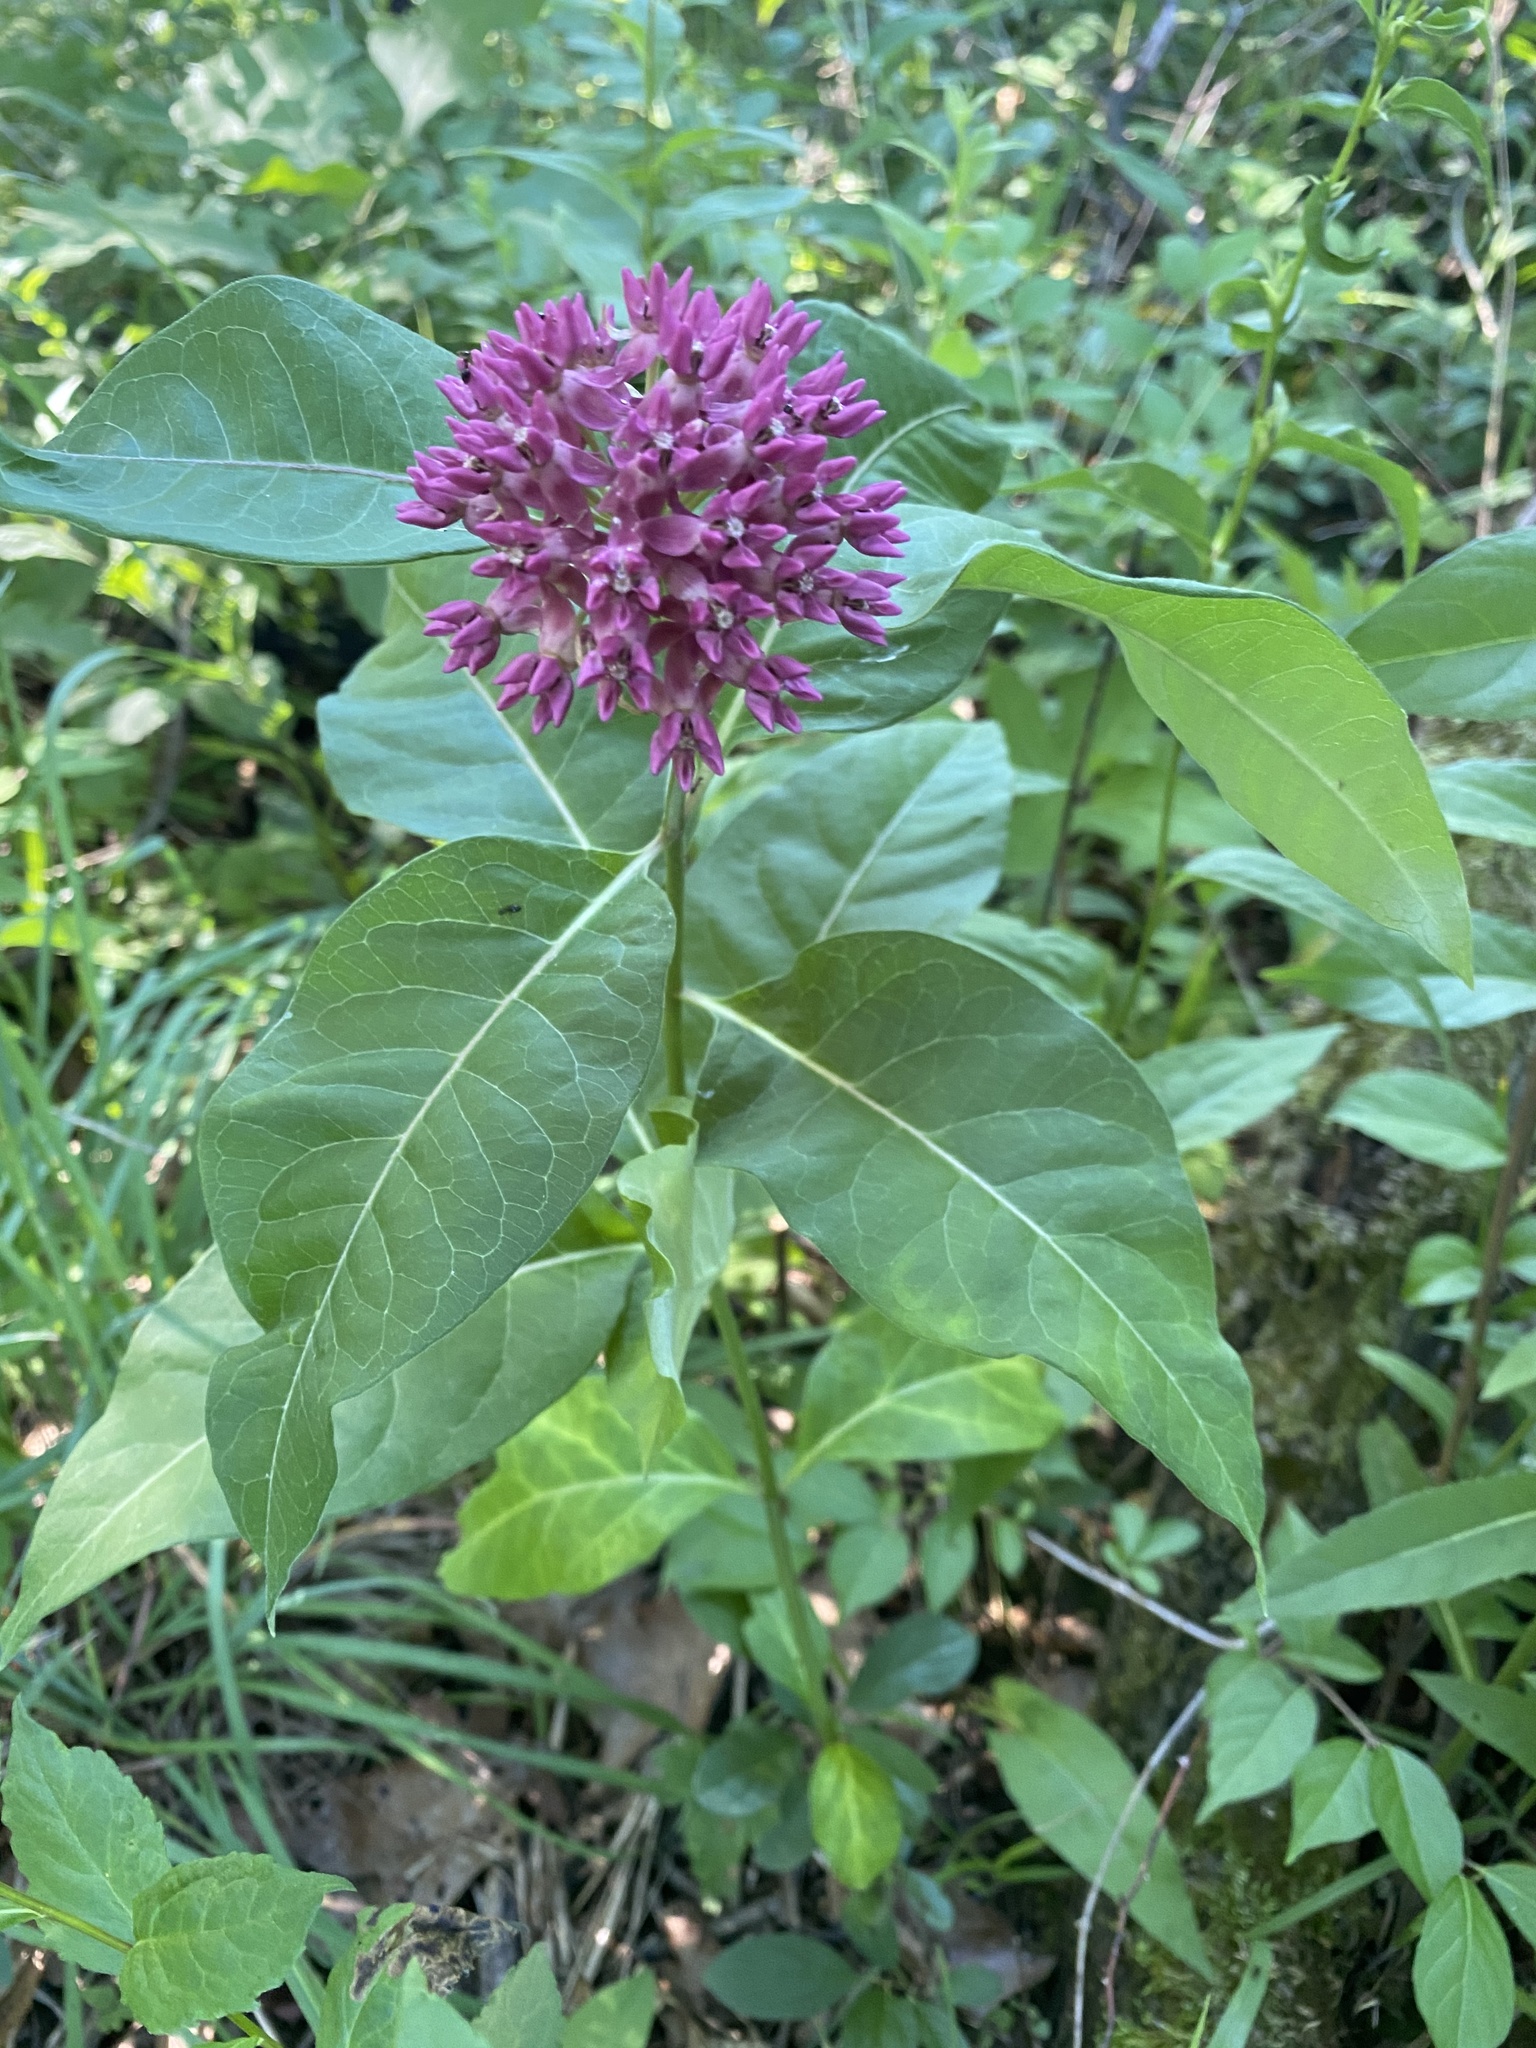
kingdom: Plantae
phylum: Tracheophyta
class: Magnoliopsida
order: Gentianales
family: Apocynaceae
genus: Asclepias
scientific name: Asclepias purpurascens
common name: Purple milkweed
